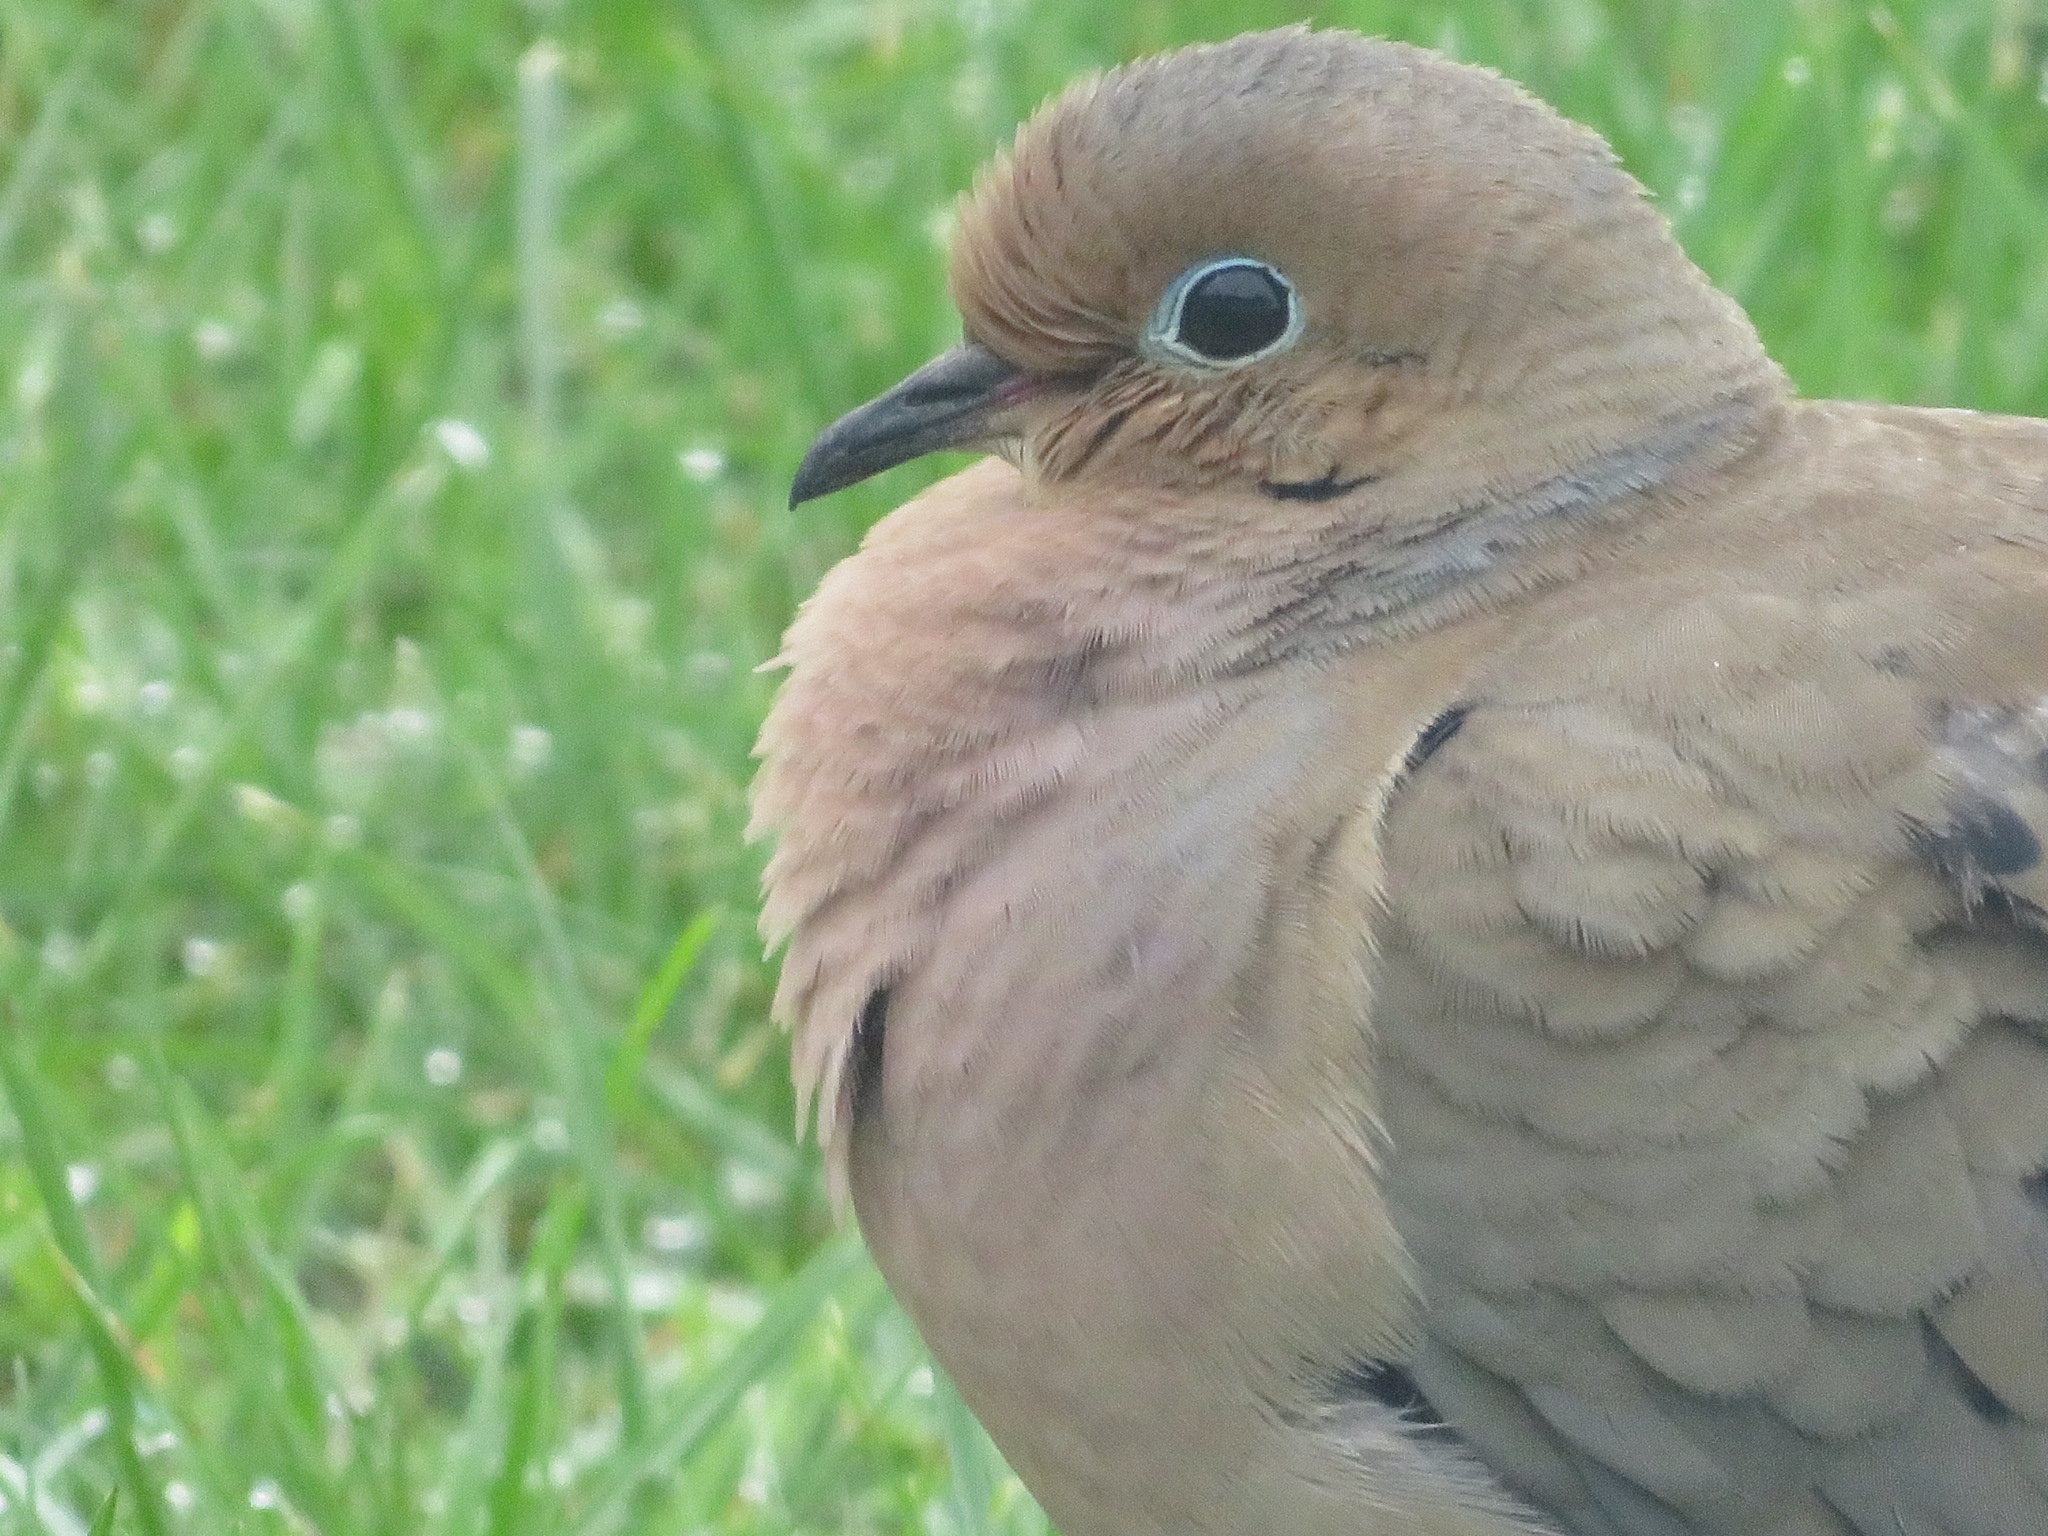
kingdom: Animalia
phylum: Chordata
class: Aves
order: Columbiformes
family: Columbidae
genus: Zenaida
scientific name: Zenaida macroura
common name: Mourning dove
